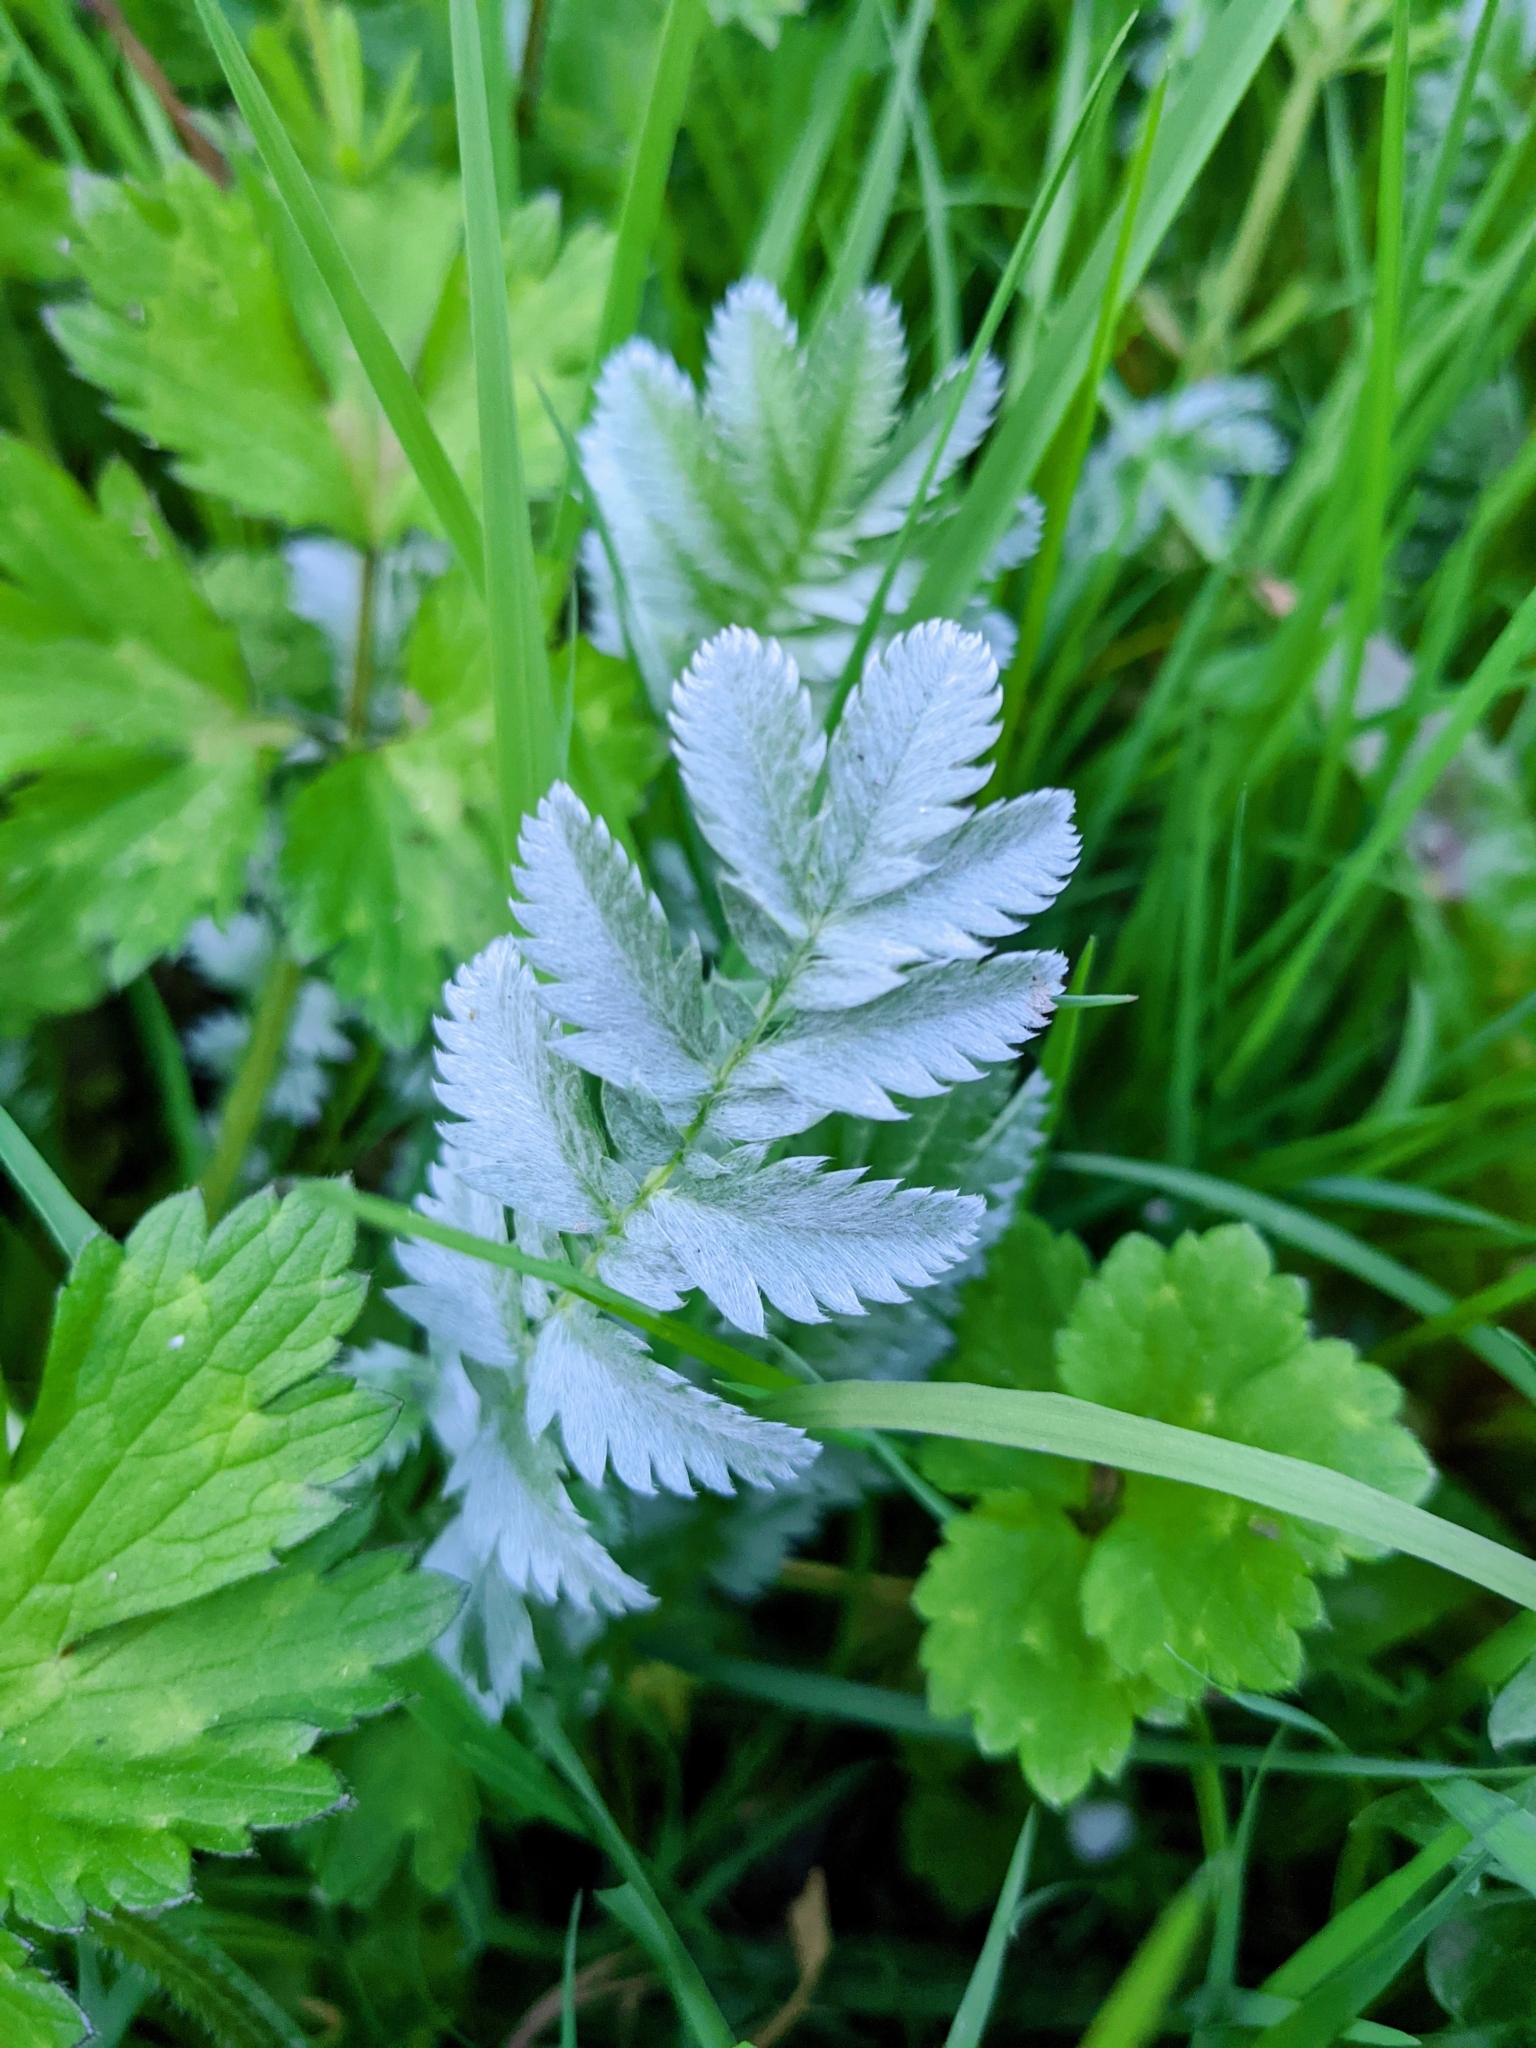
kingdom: Plantae
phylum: Tracheophyta
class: Magnoliopsida
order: Rosales
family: Rosaceae
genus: Argentina
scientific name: Argentina anserina
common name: Common silverweed
